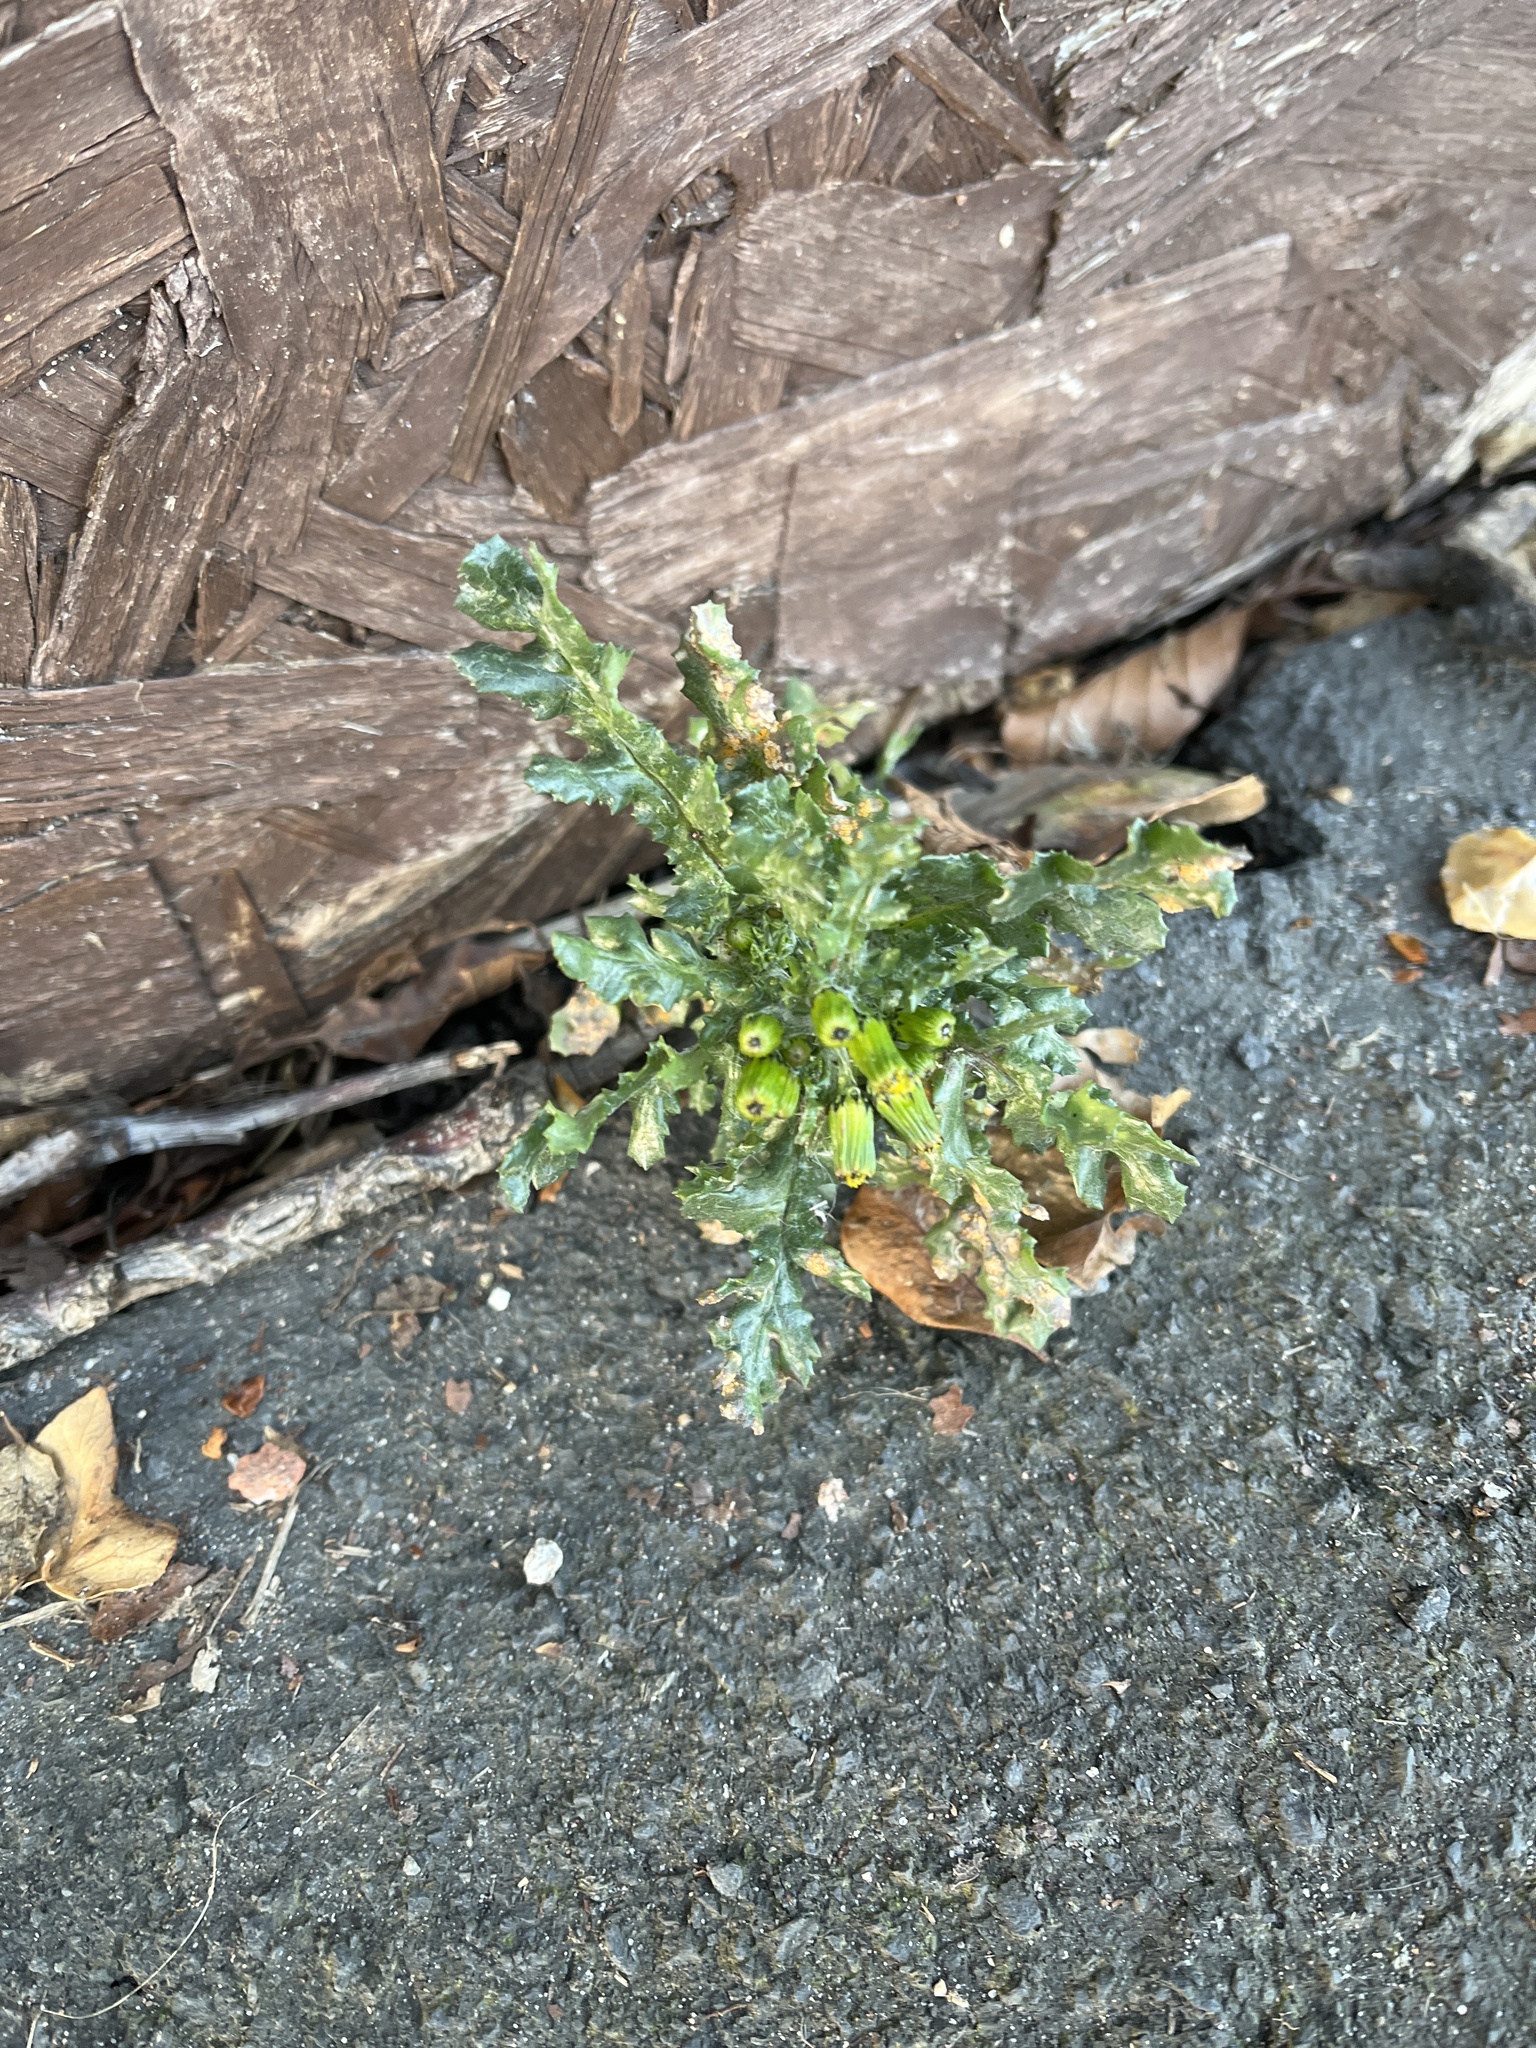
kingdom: Plantae
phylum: Tracheophyta
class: Magnoliopsida
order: Asterales
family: Asteraceae
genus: Senecio
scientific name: Senecio vulgaris
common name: Old-man-in-the-spring
